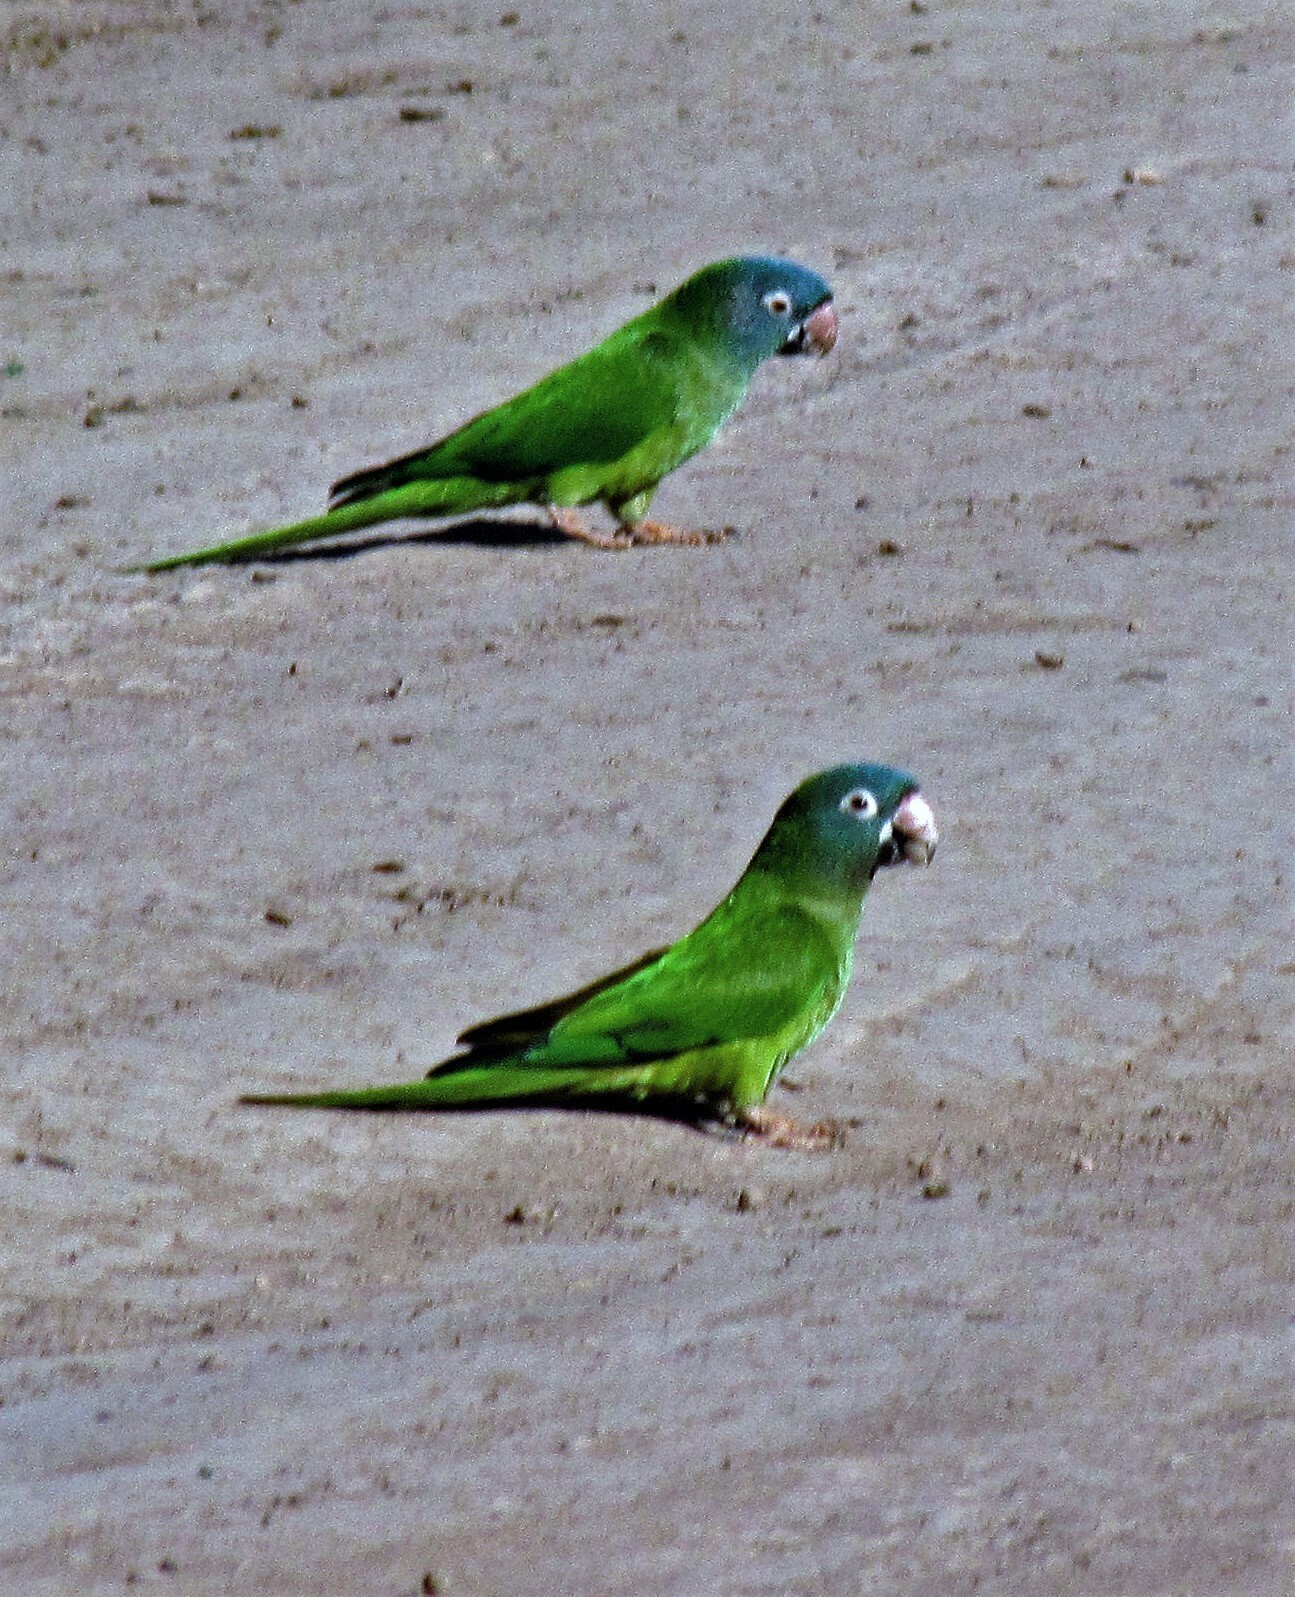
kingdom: Animalia
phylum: Chordata
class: Aves
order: Psittaciformes
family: Psittacidae
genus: Aratinga
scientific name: Aratinga acuticaudata
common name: Blue-crowned parakeet
